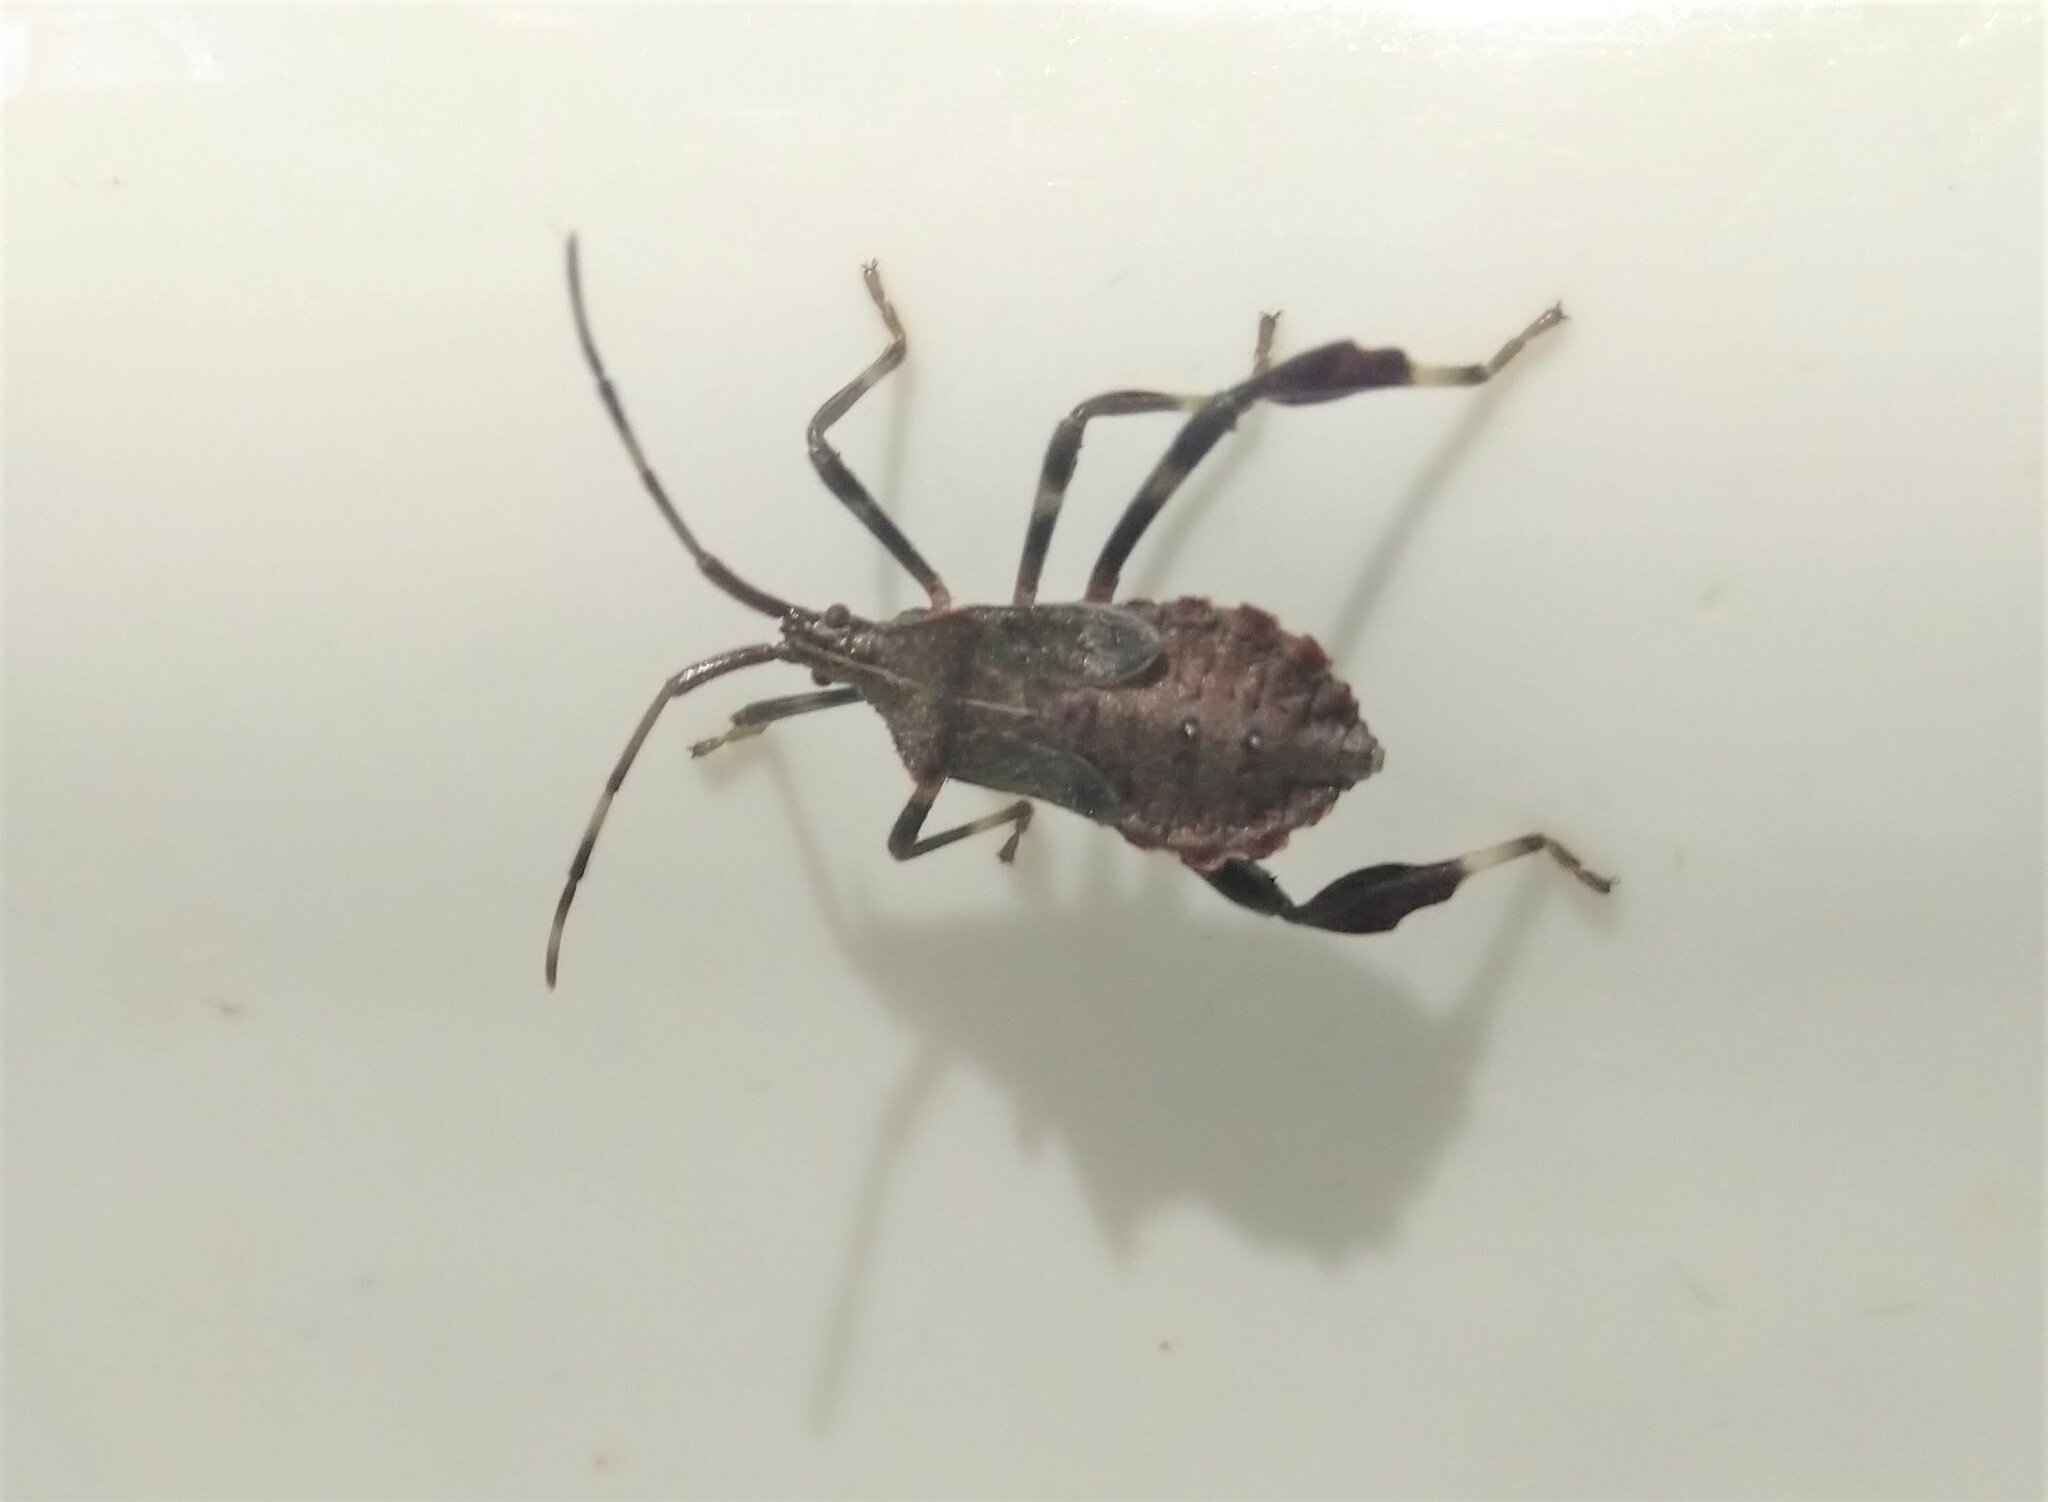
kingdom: Animalia
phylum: Arthropoda
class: Insecta
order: Hemiptera
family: Coreidae
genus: Acanthocephala
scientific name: Acanthocephala terminalis
